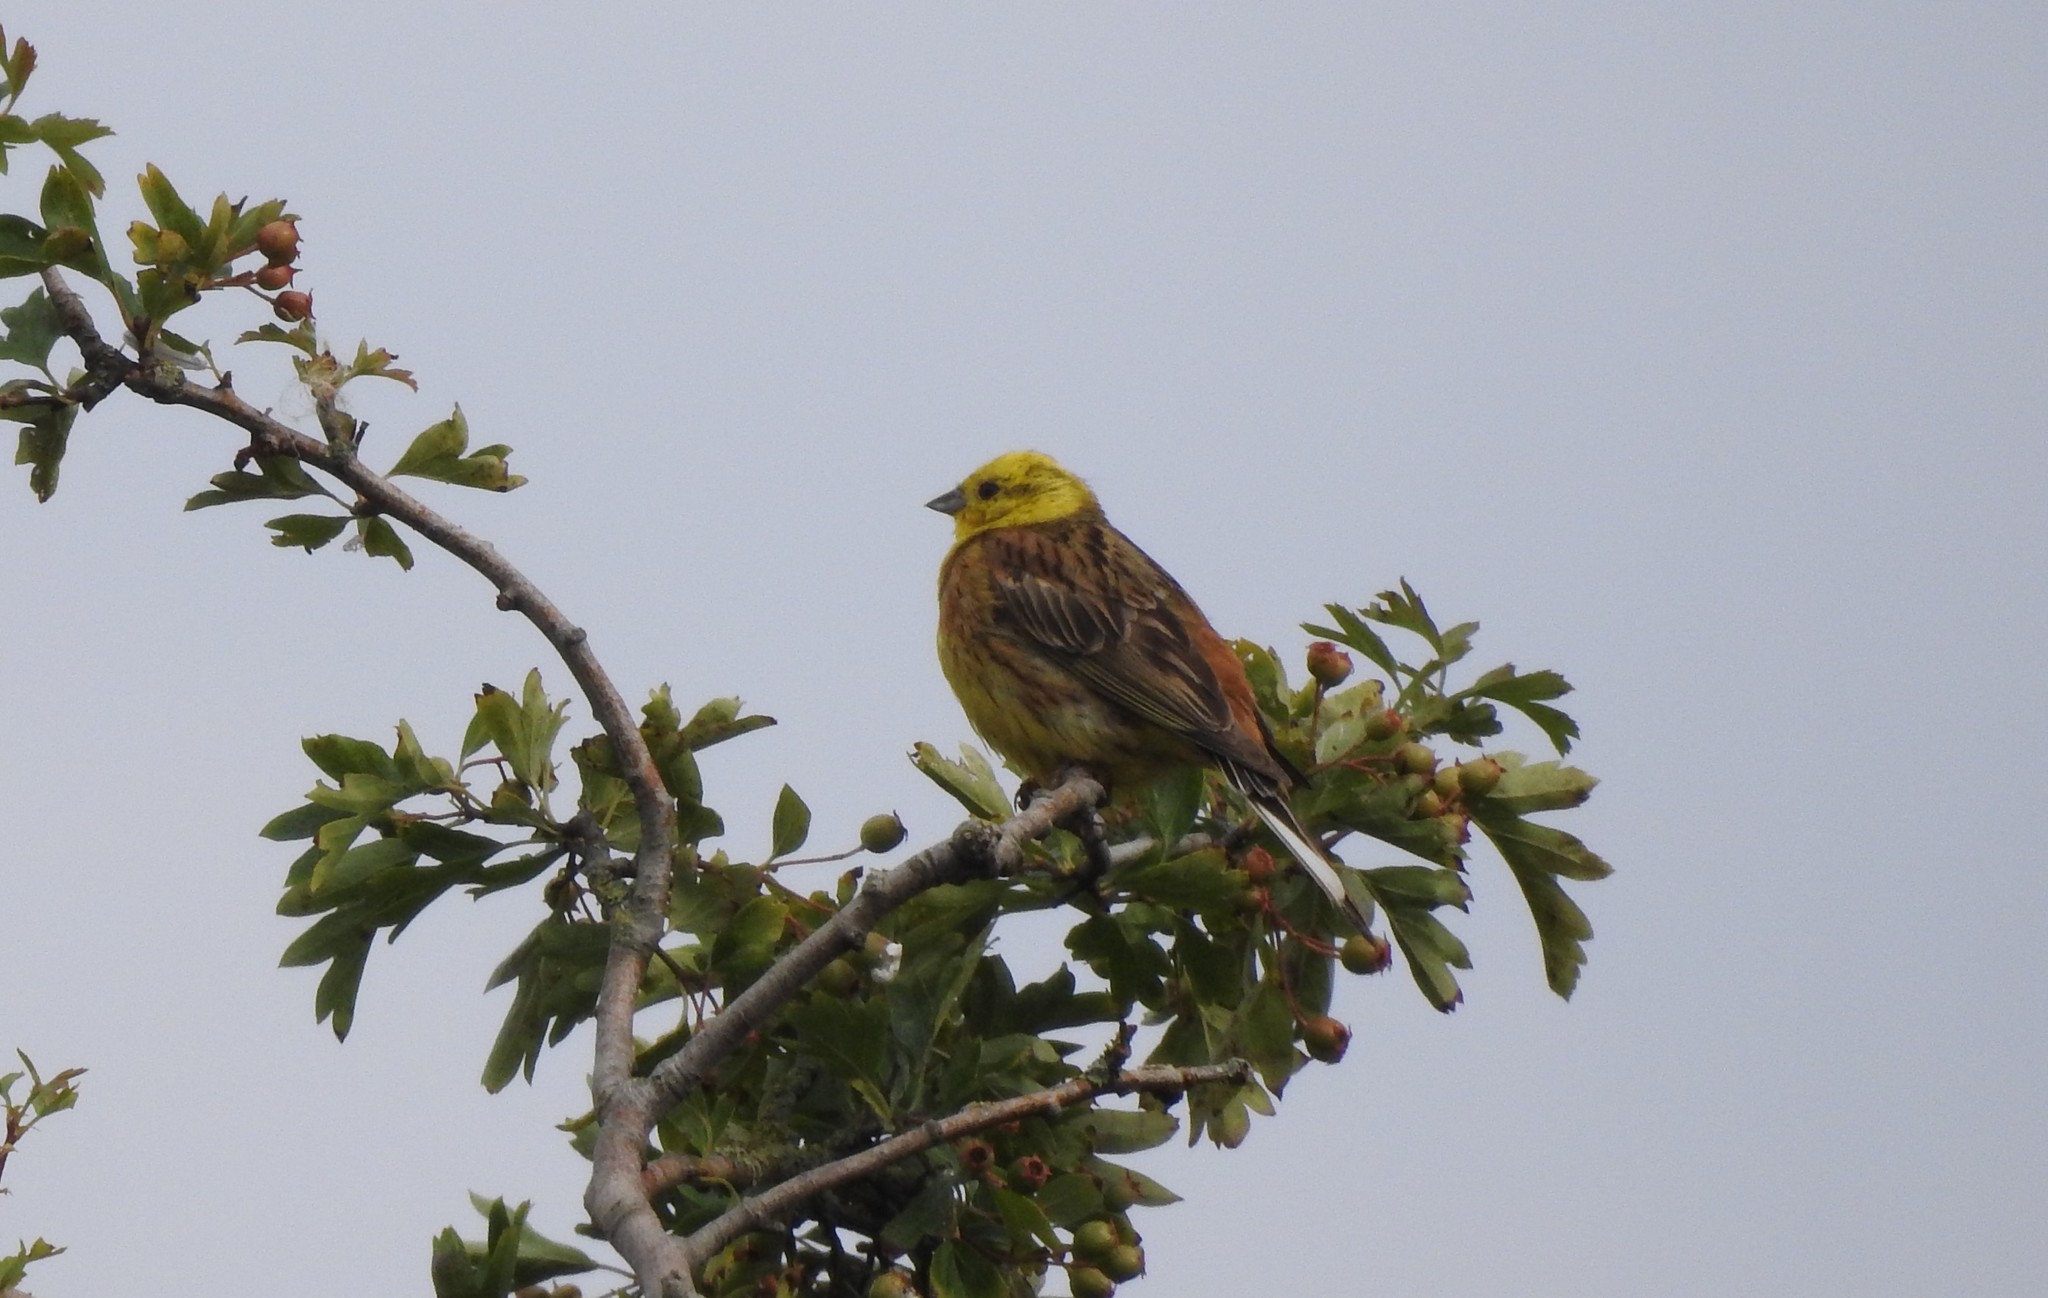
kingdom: Animalia
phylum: Chordata
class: Aves
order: Passeriformes
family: Emberizidae
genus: Emberiza
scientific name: Emberiza citrinella
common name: Yellowhammer
